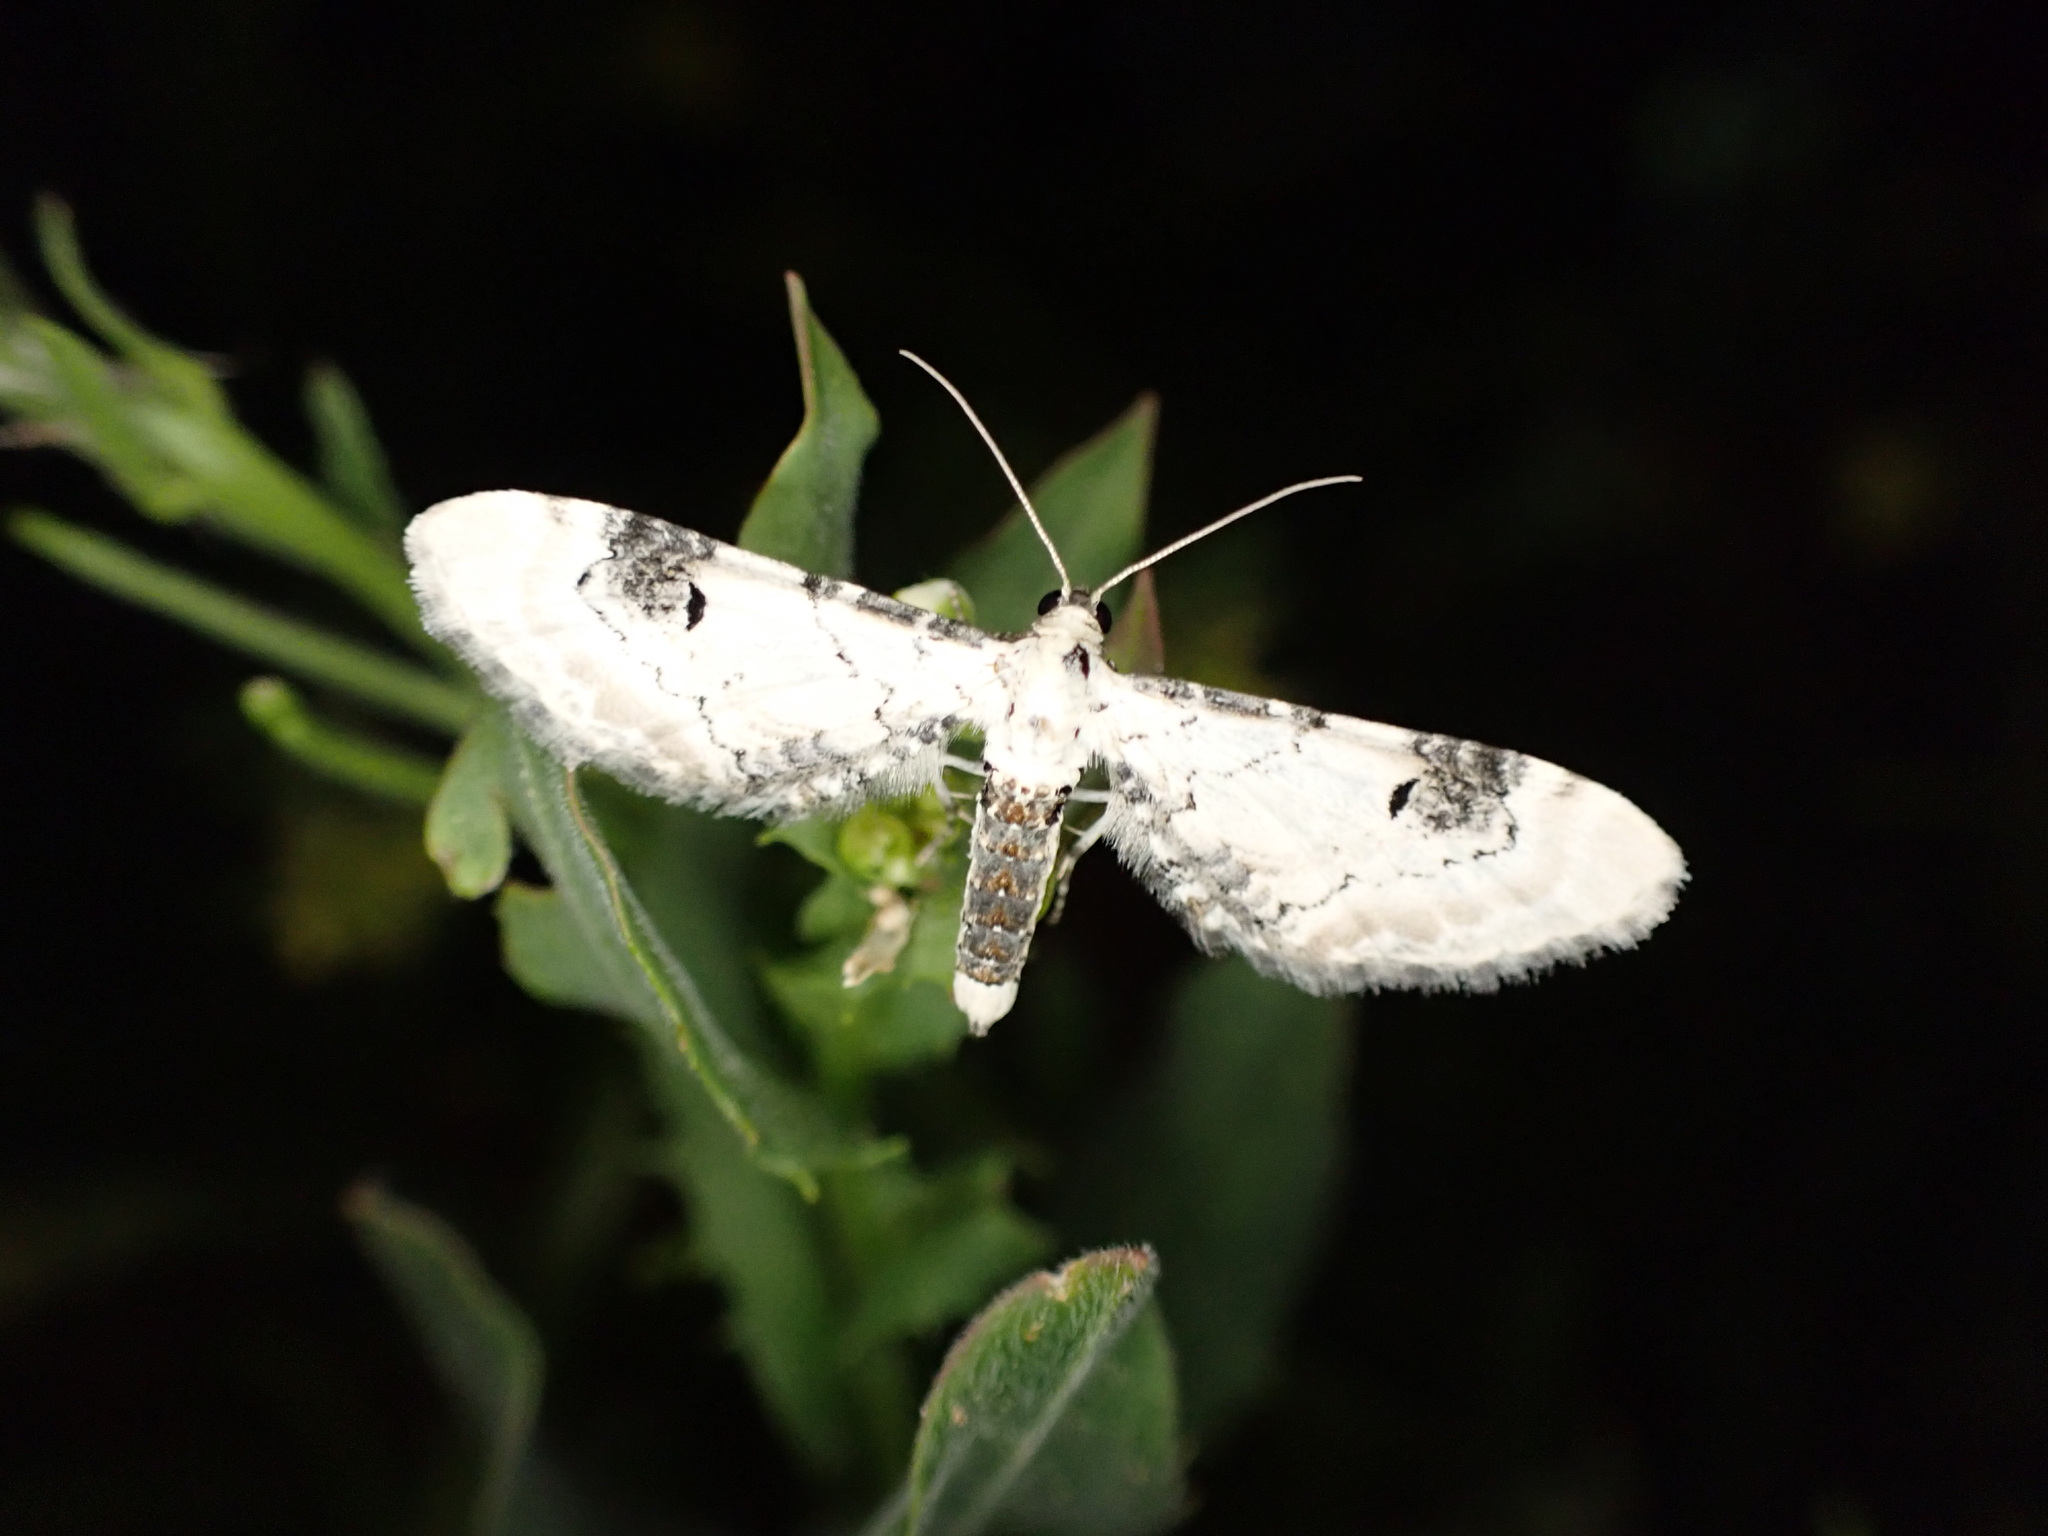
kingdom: Animalia
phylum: Arthropoda
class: Insecta
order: Lepidoptera
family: Geometridae
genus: Eupithecia
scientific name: Eupithecia centaureata
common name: Lime-speck pug
